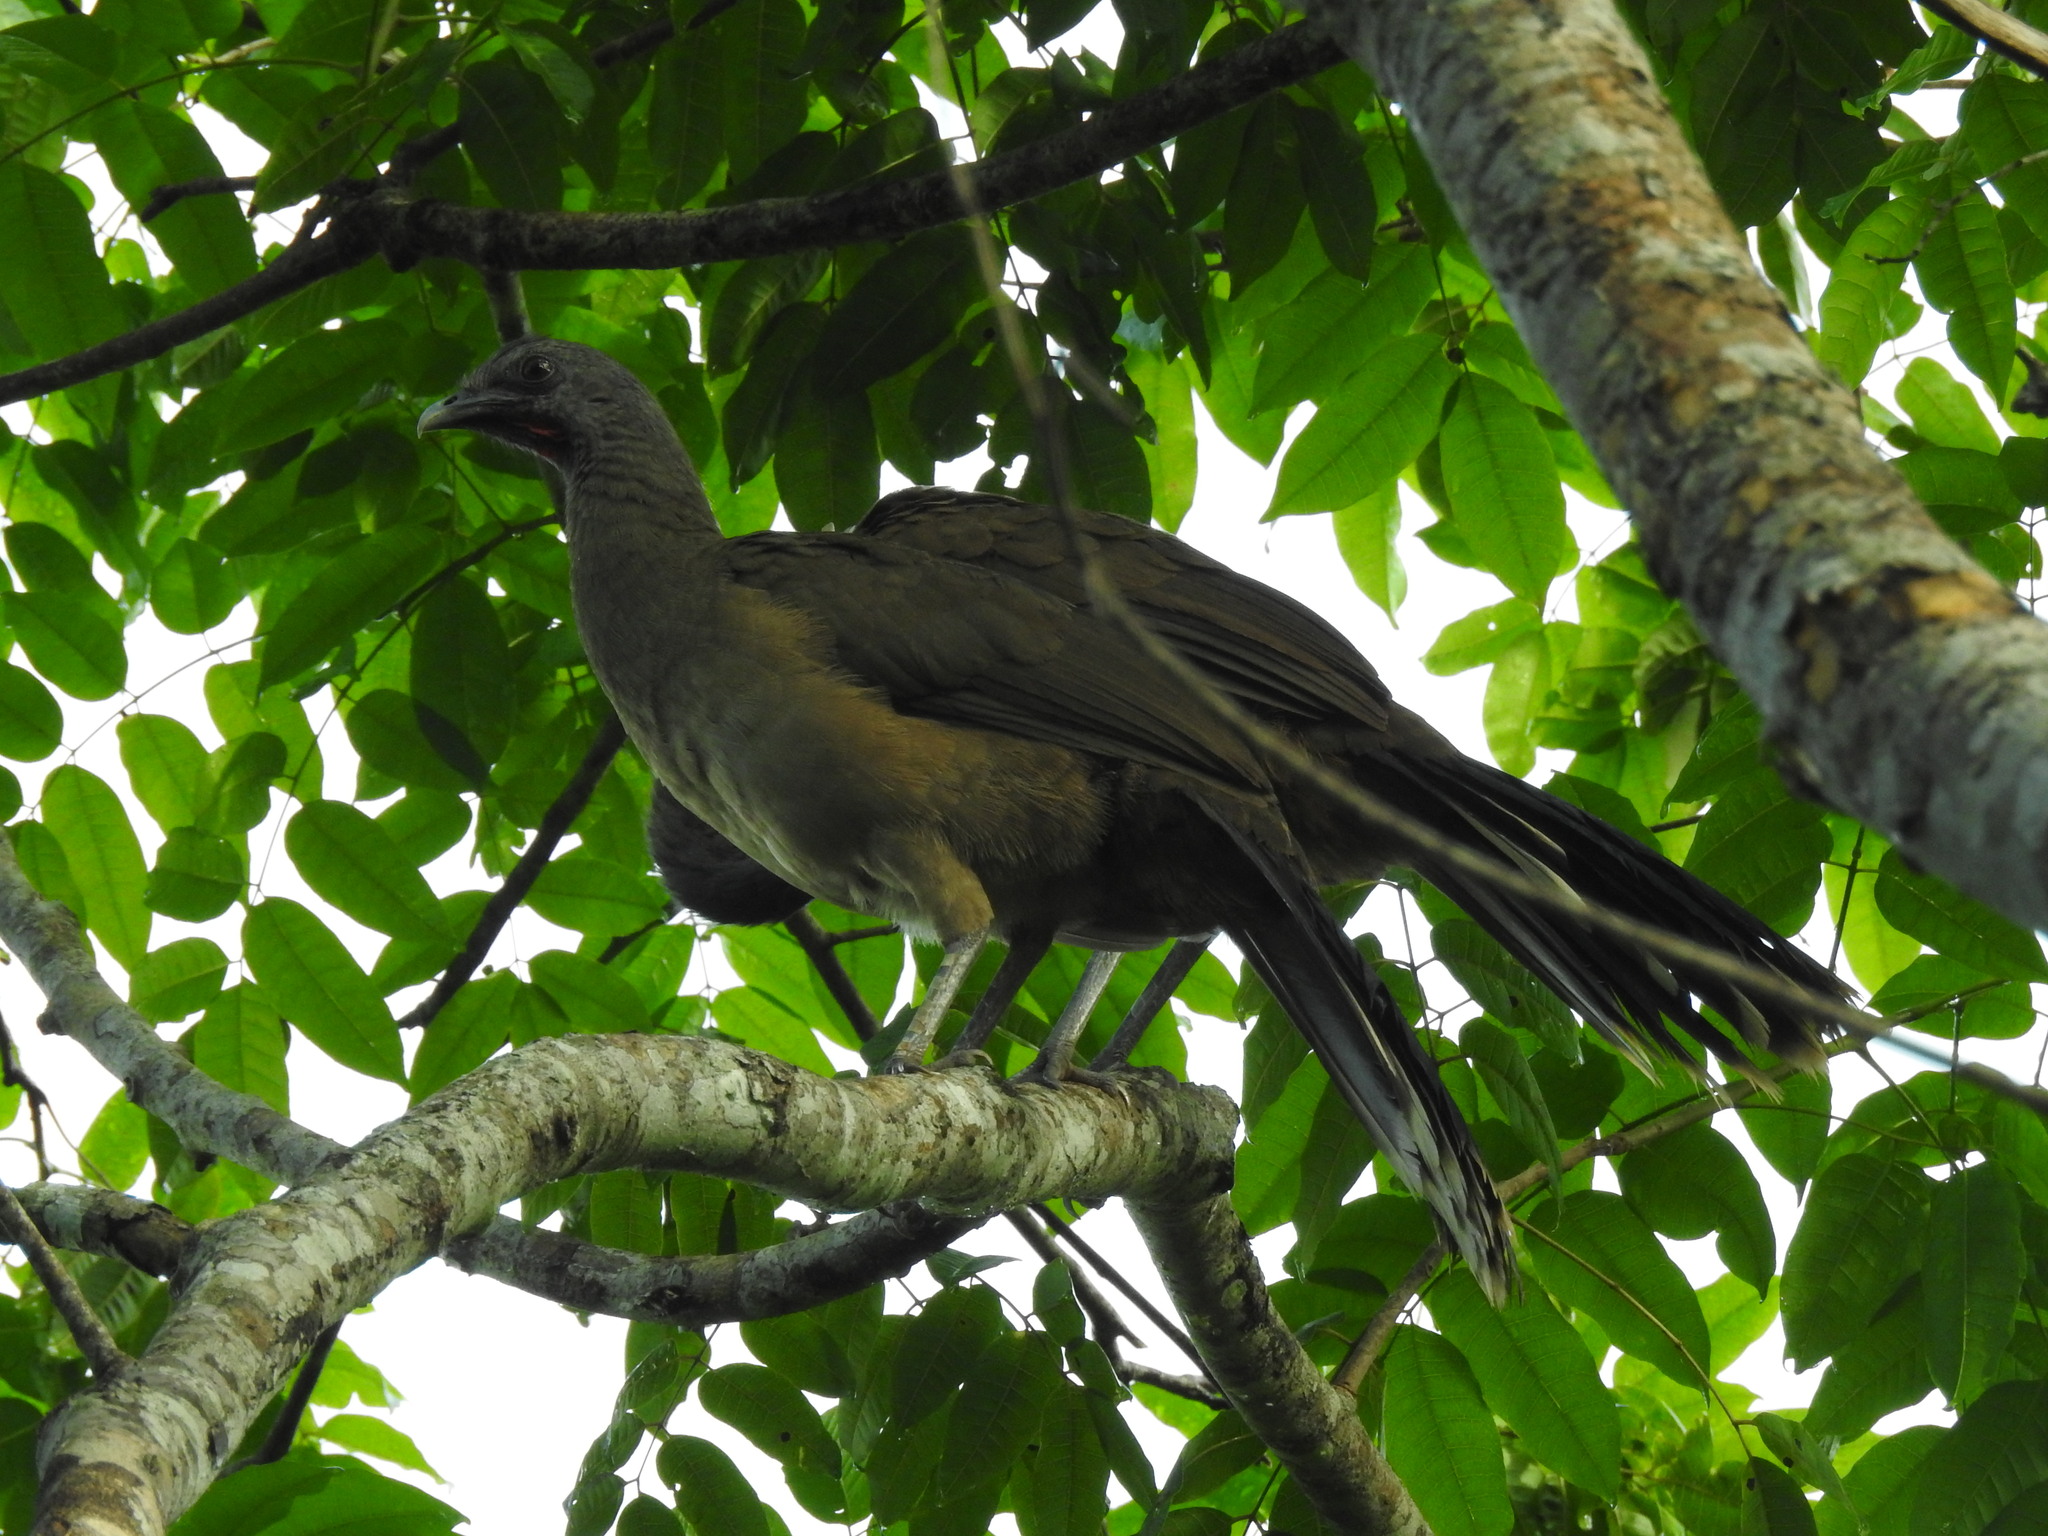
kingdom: Animalia
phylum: Chordata
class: Aves
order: Galliformes
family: Cracidae
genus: Ortalis
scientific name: Ortalis vetula
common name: Plain chachalaca
